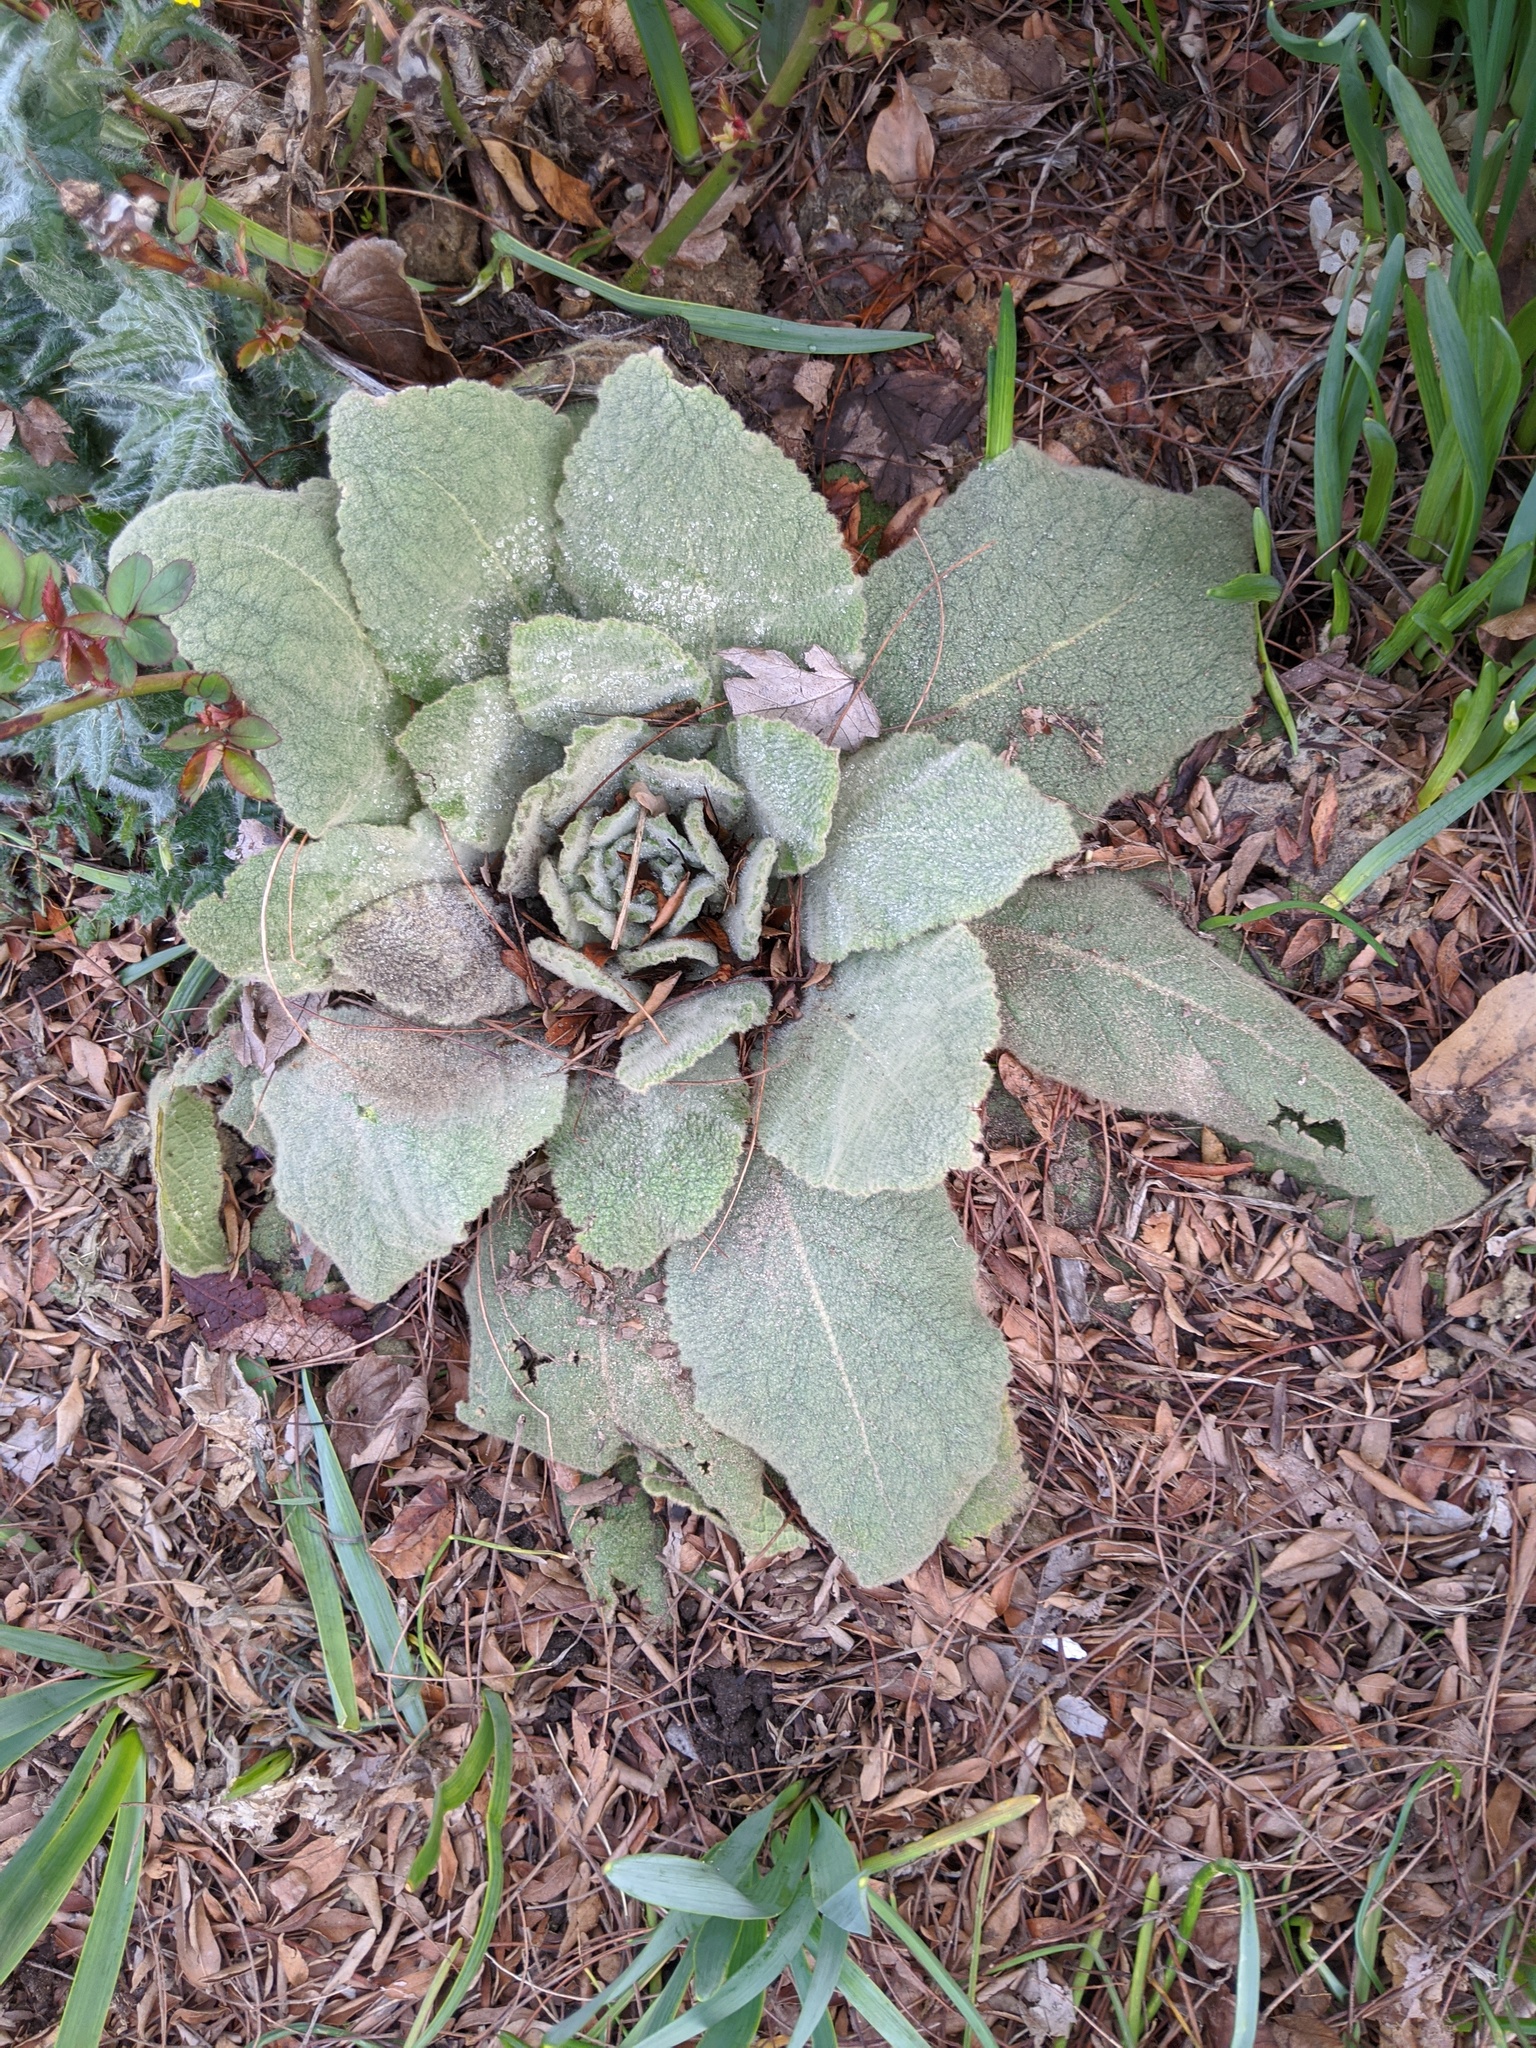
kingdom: Plantae
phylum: Tracheophyta
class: Magnoliopsida
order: Lamiales
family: Scrophulariaceae
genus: Verbascum
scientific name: Verbascum thapsus
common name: Common mullein
